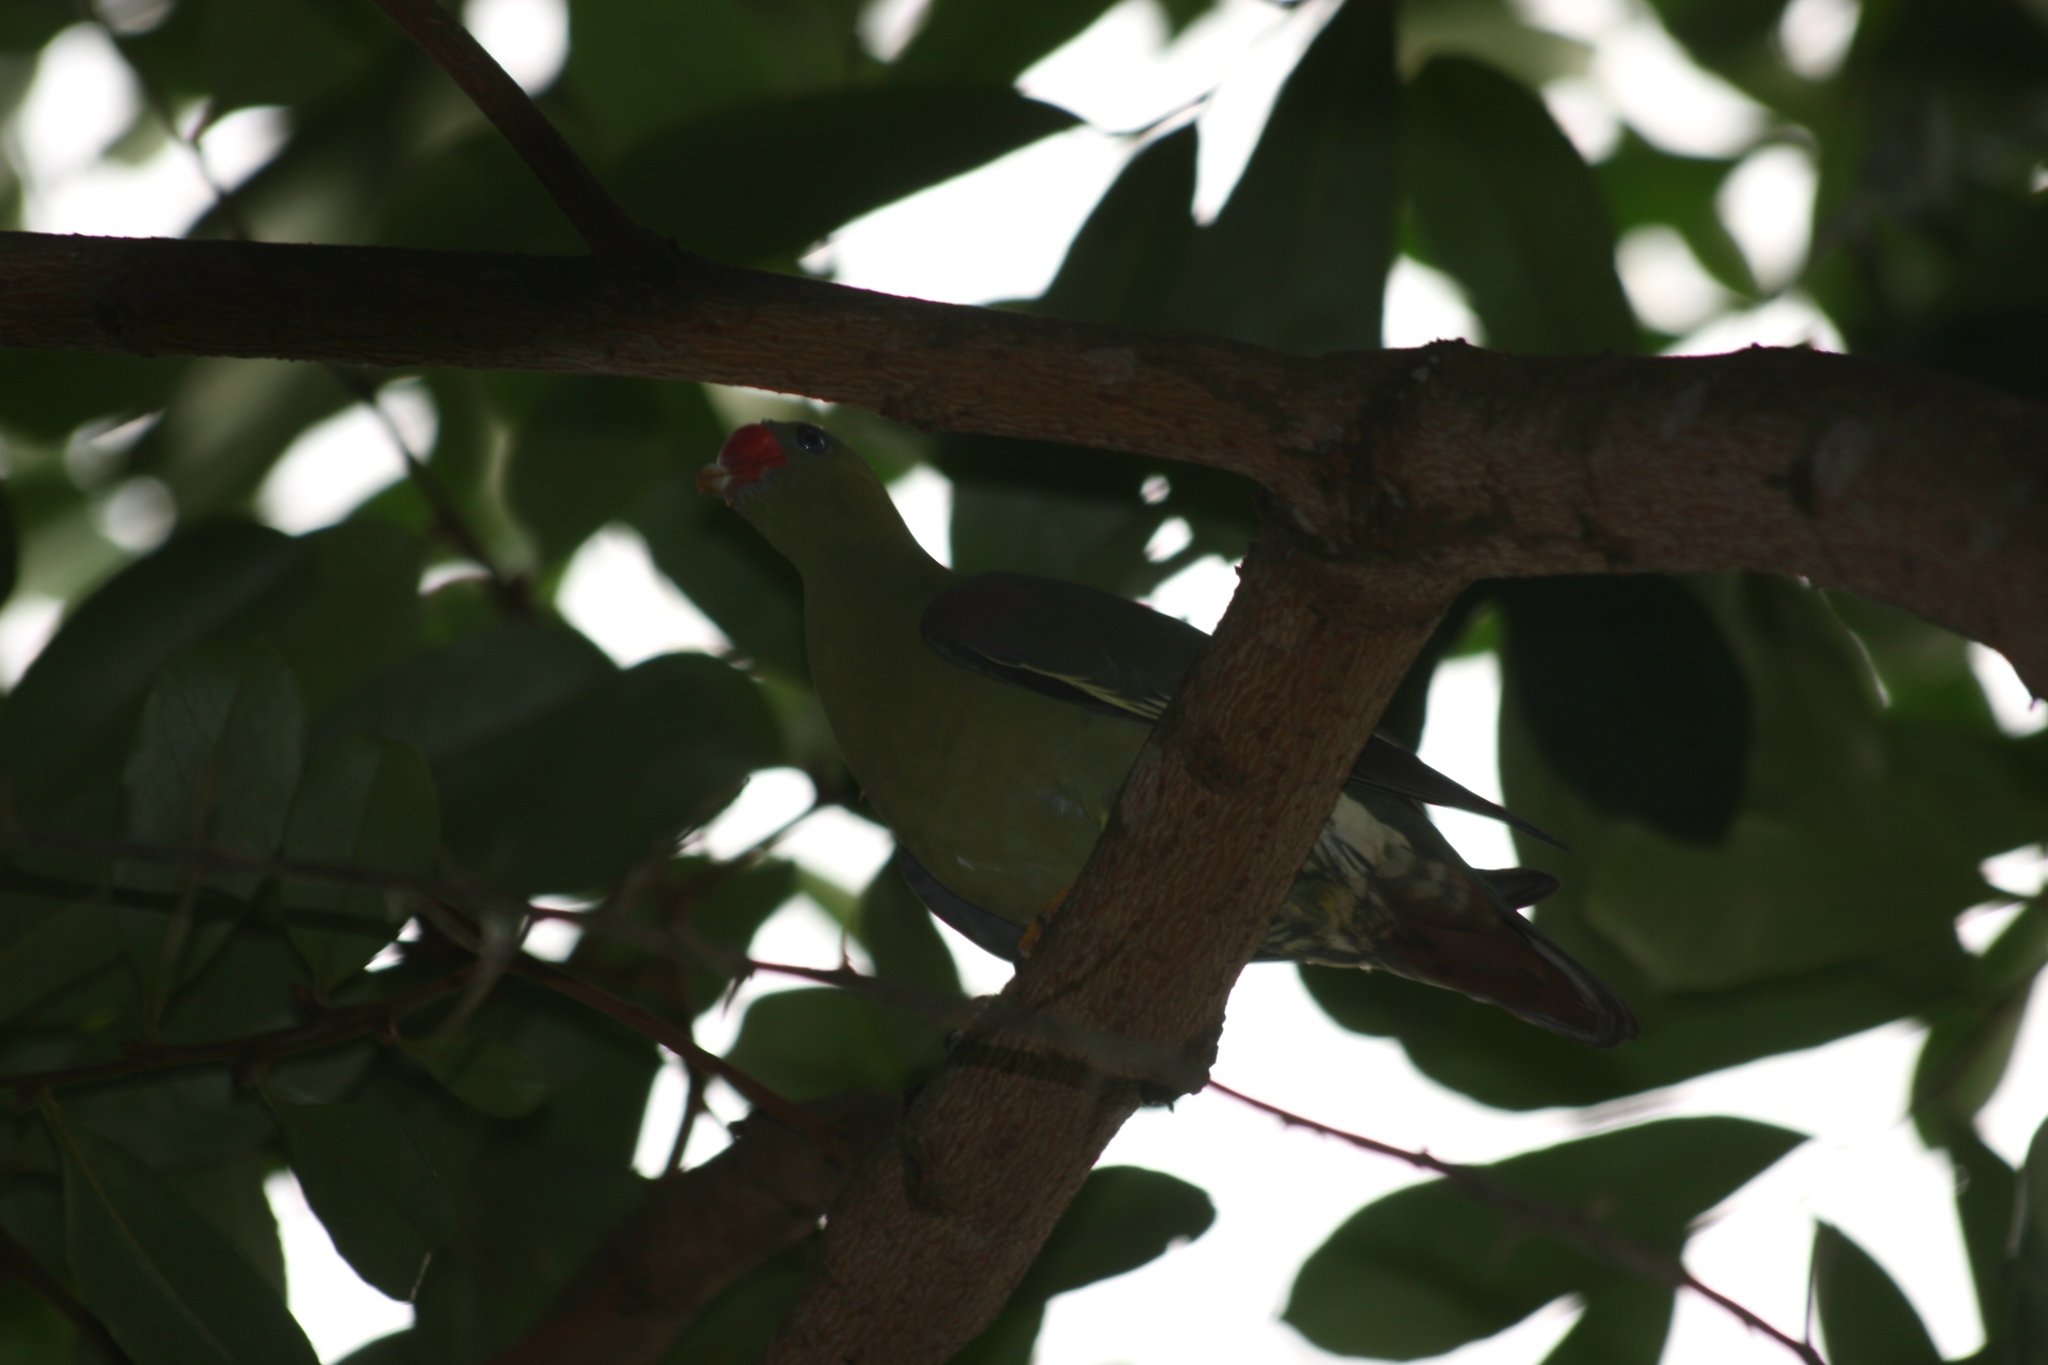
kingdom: Animalia
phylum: Chordata
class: Aves
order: Columbiformes
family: Columbidae
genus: Treron
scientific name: Treron calvus
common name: African green pigeon
